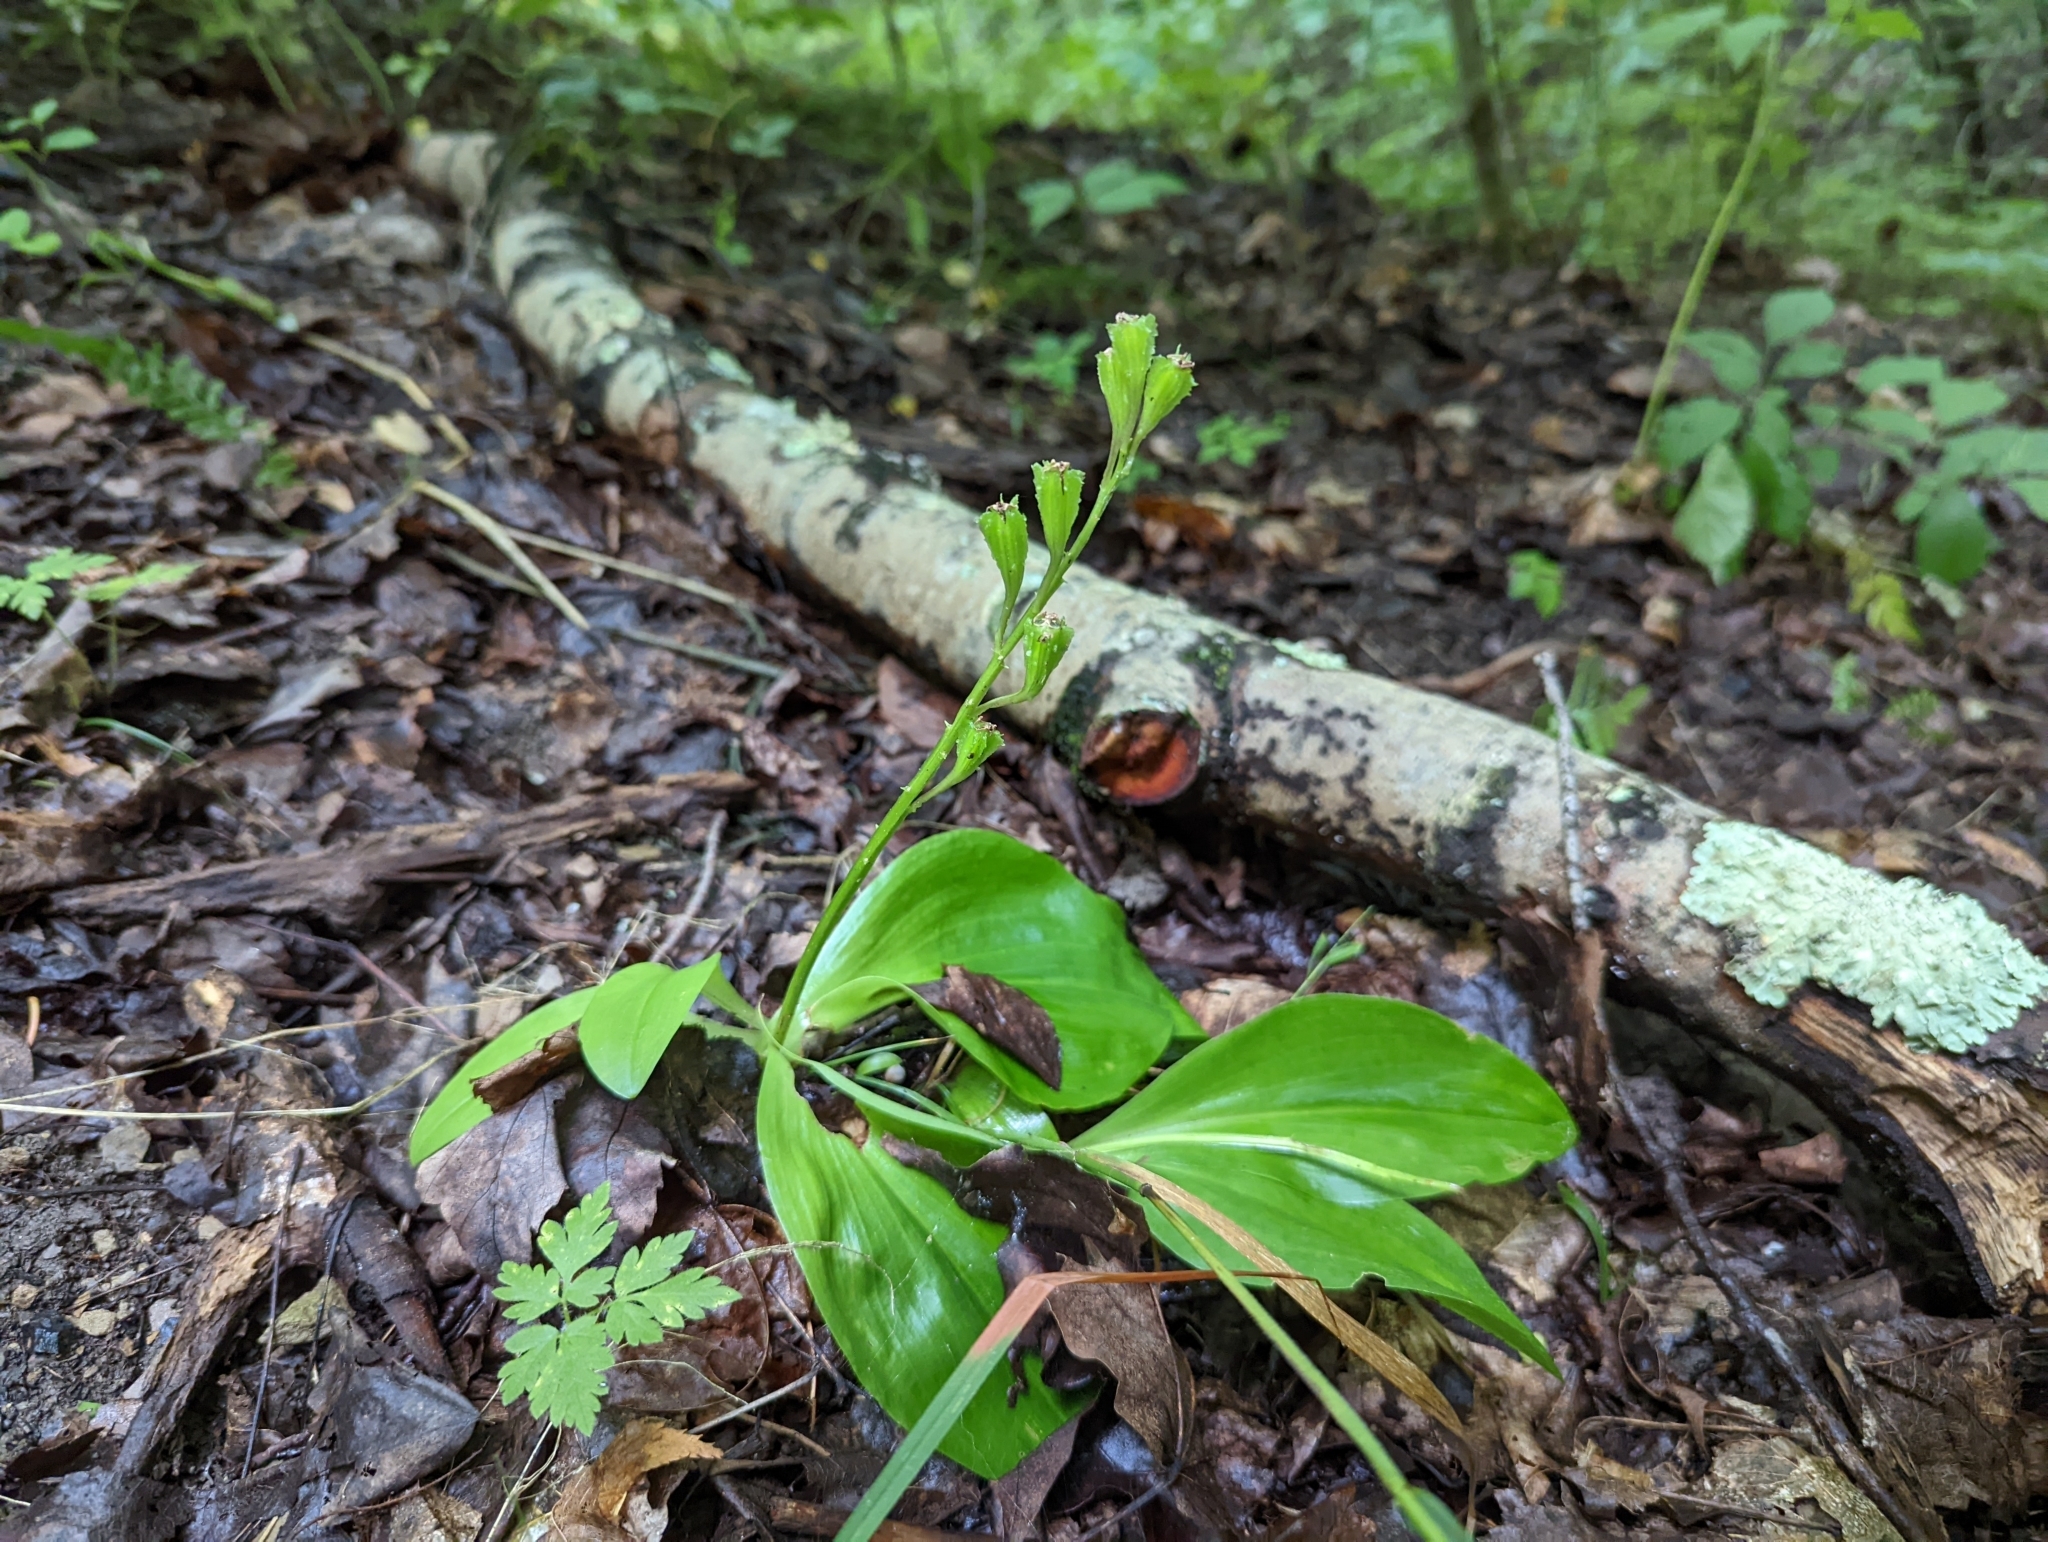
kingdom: Plantae
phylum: Tracheophyta
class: Liliopsida
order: Asparagales
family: Orchidaceae
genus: Liparis
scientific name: Liparis liliifolia
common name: Brown wide-lip orchid
